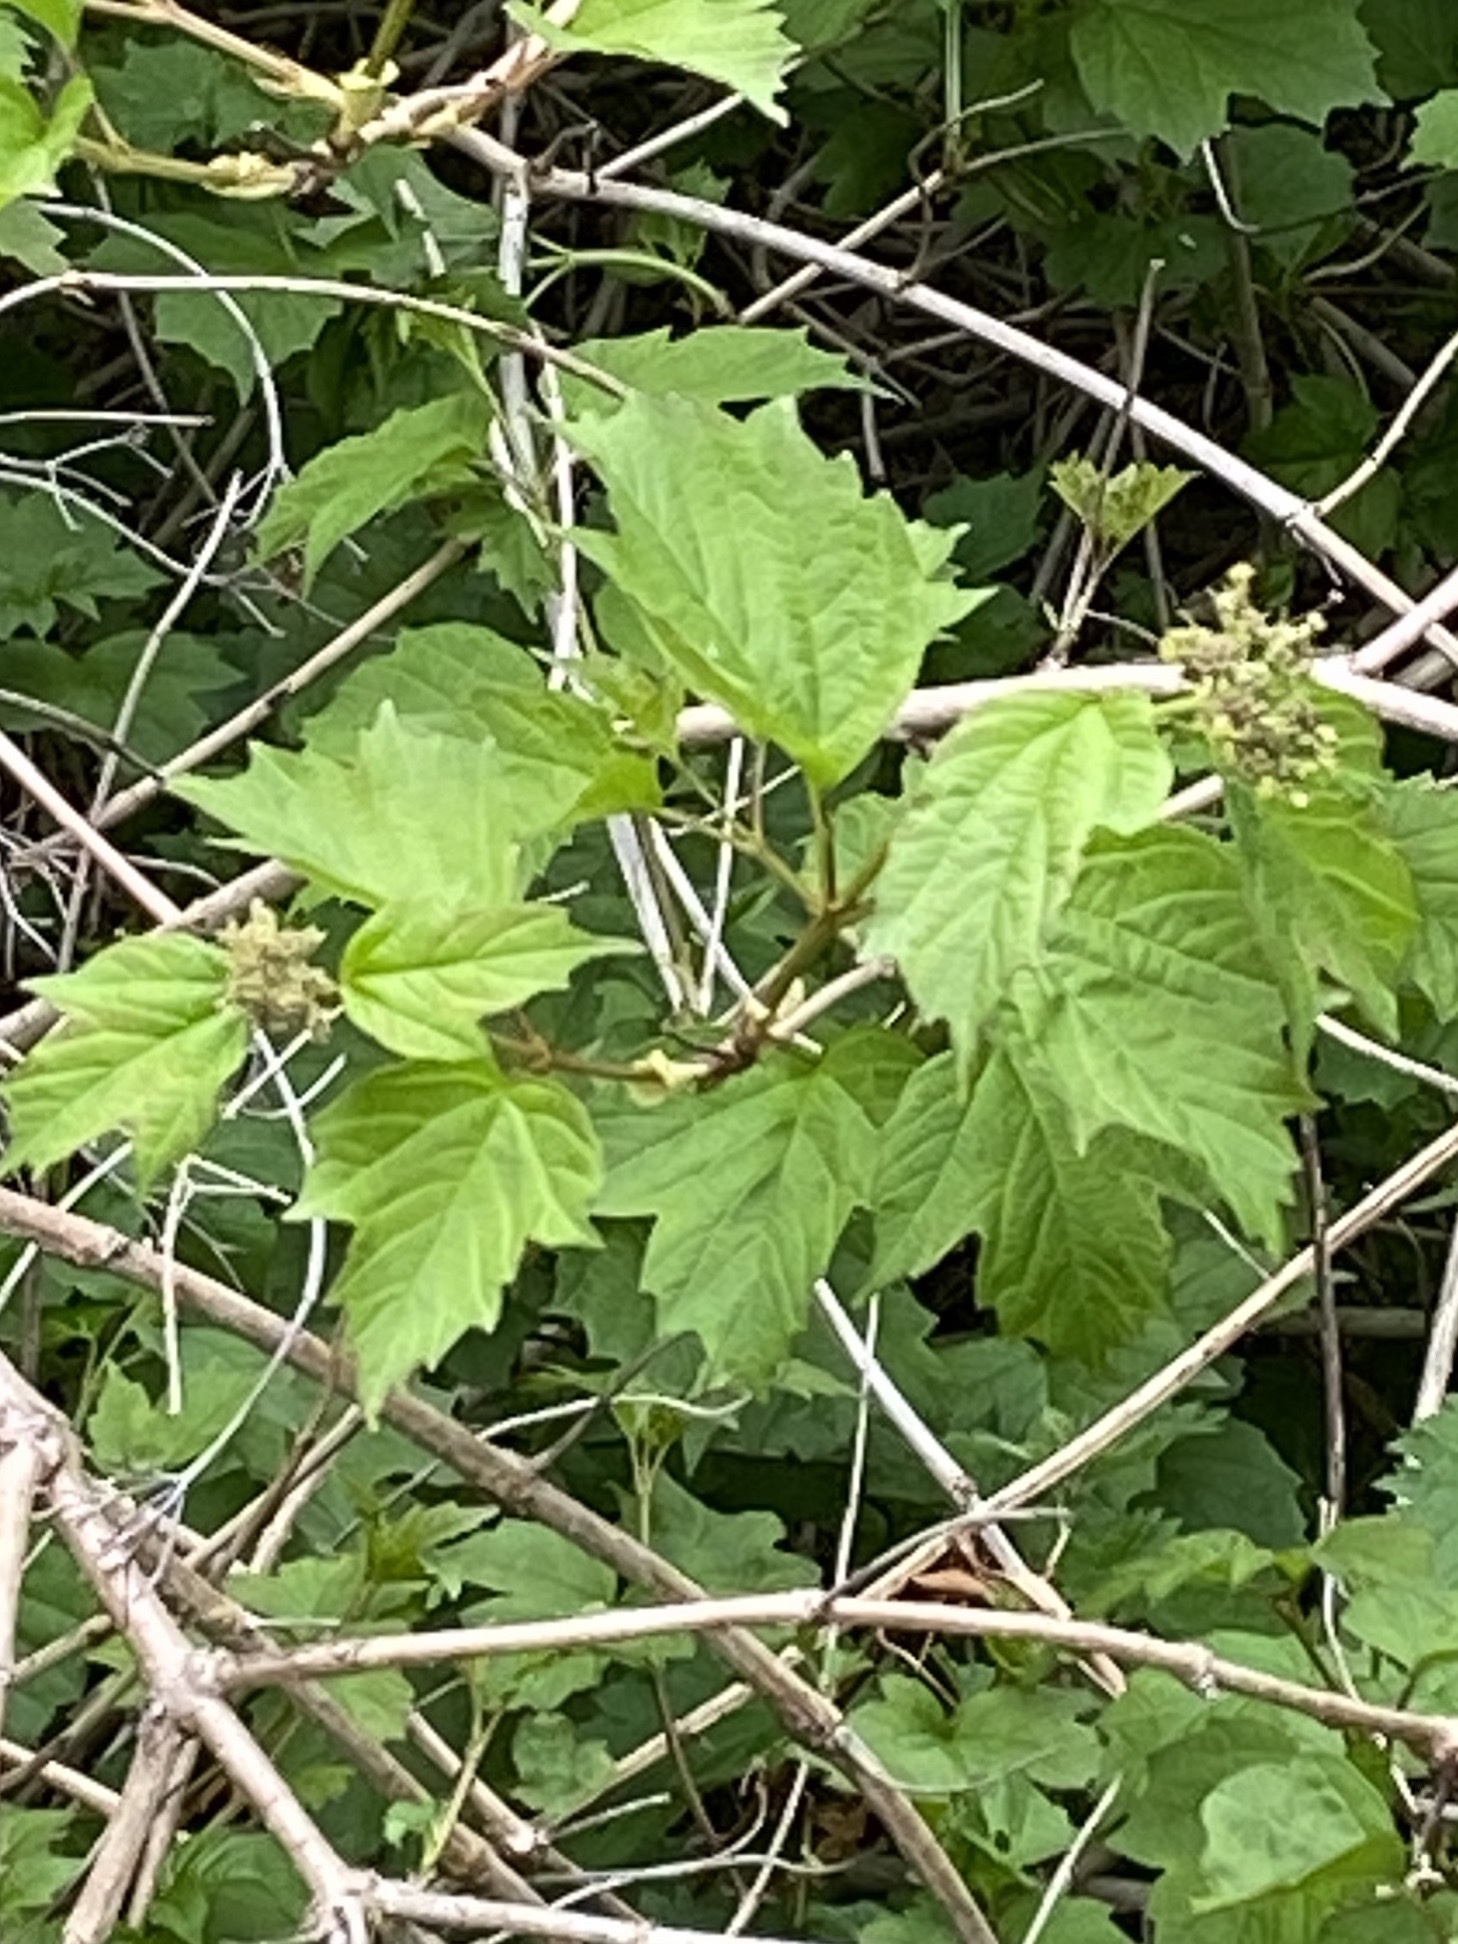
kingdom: Plantae
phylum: Tracheophyta
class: Magnoliopsida
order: Dipsacales
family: Viburnaceae
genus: Viburnum
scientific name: Viburnum opulus
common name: Guelder-rose
